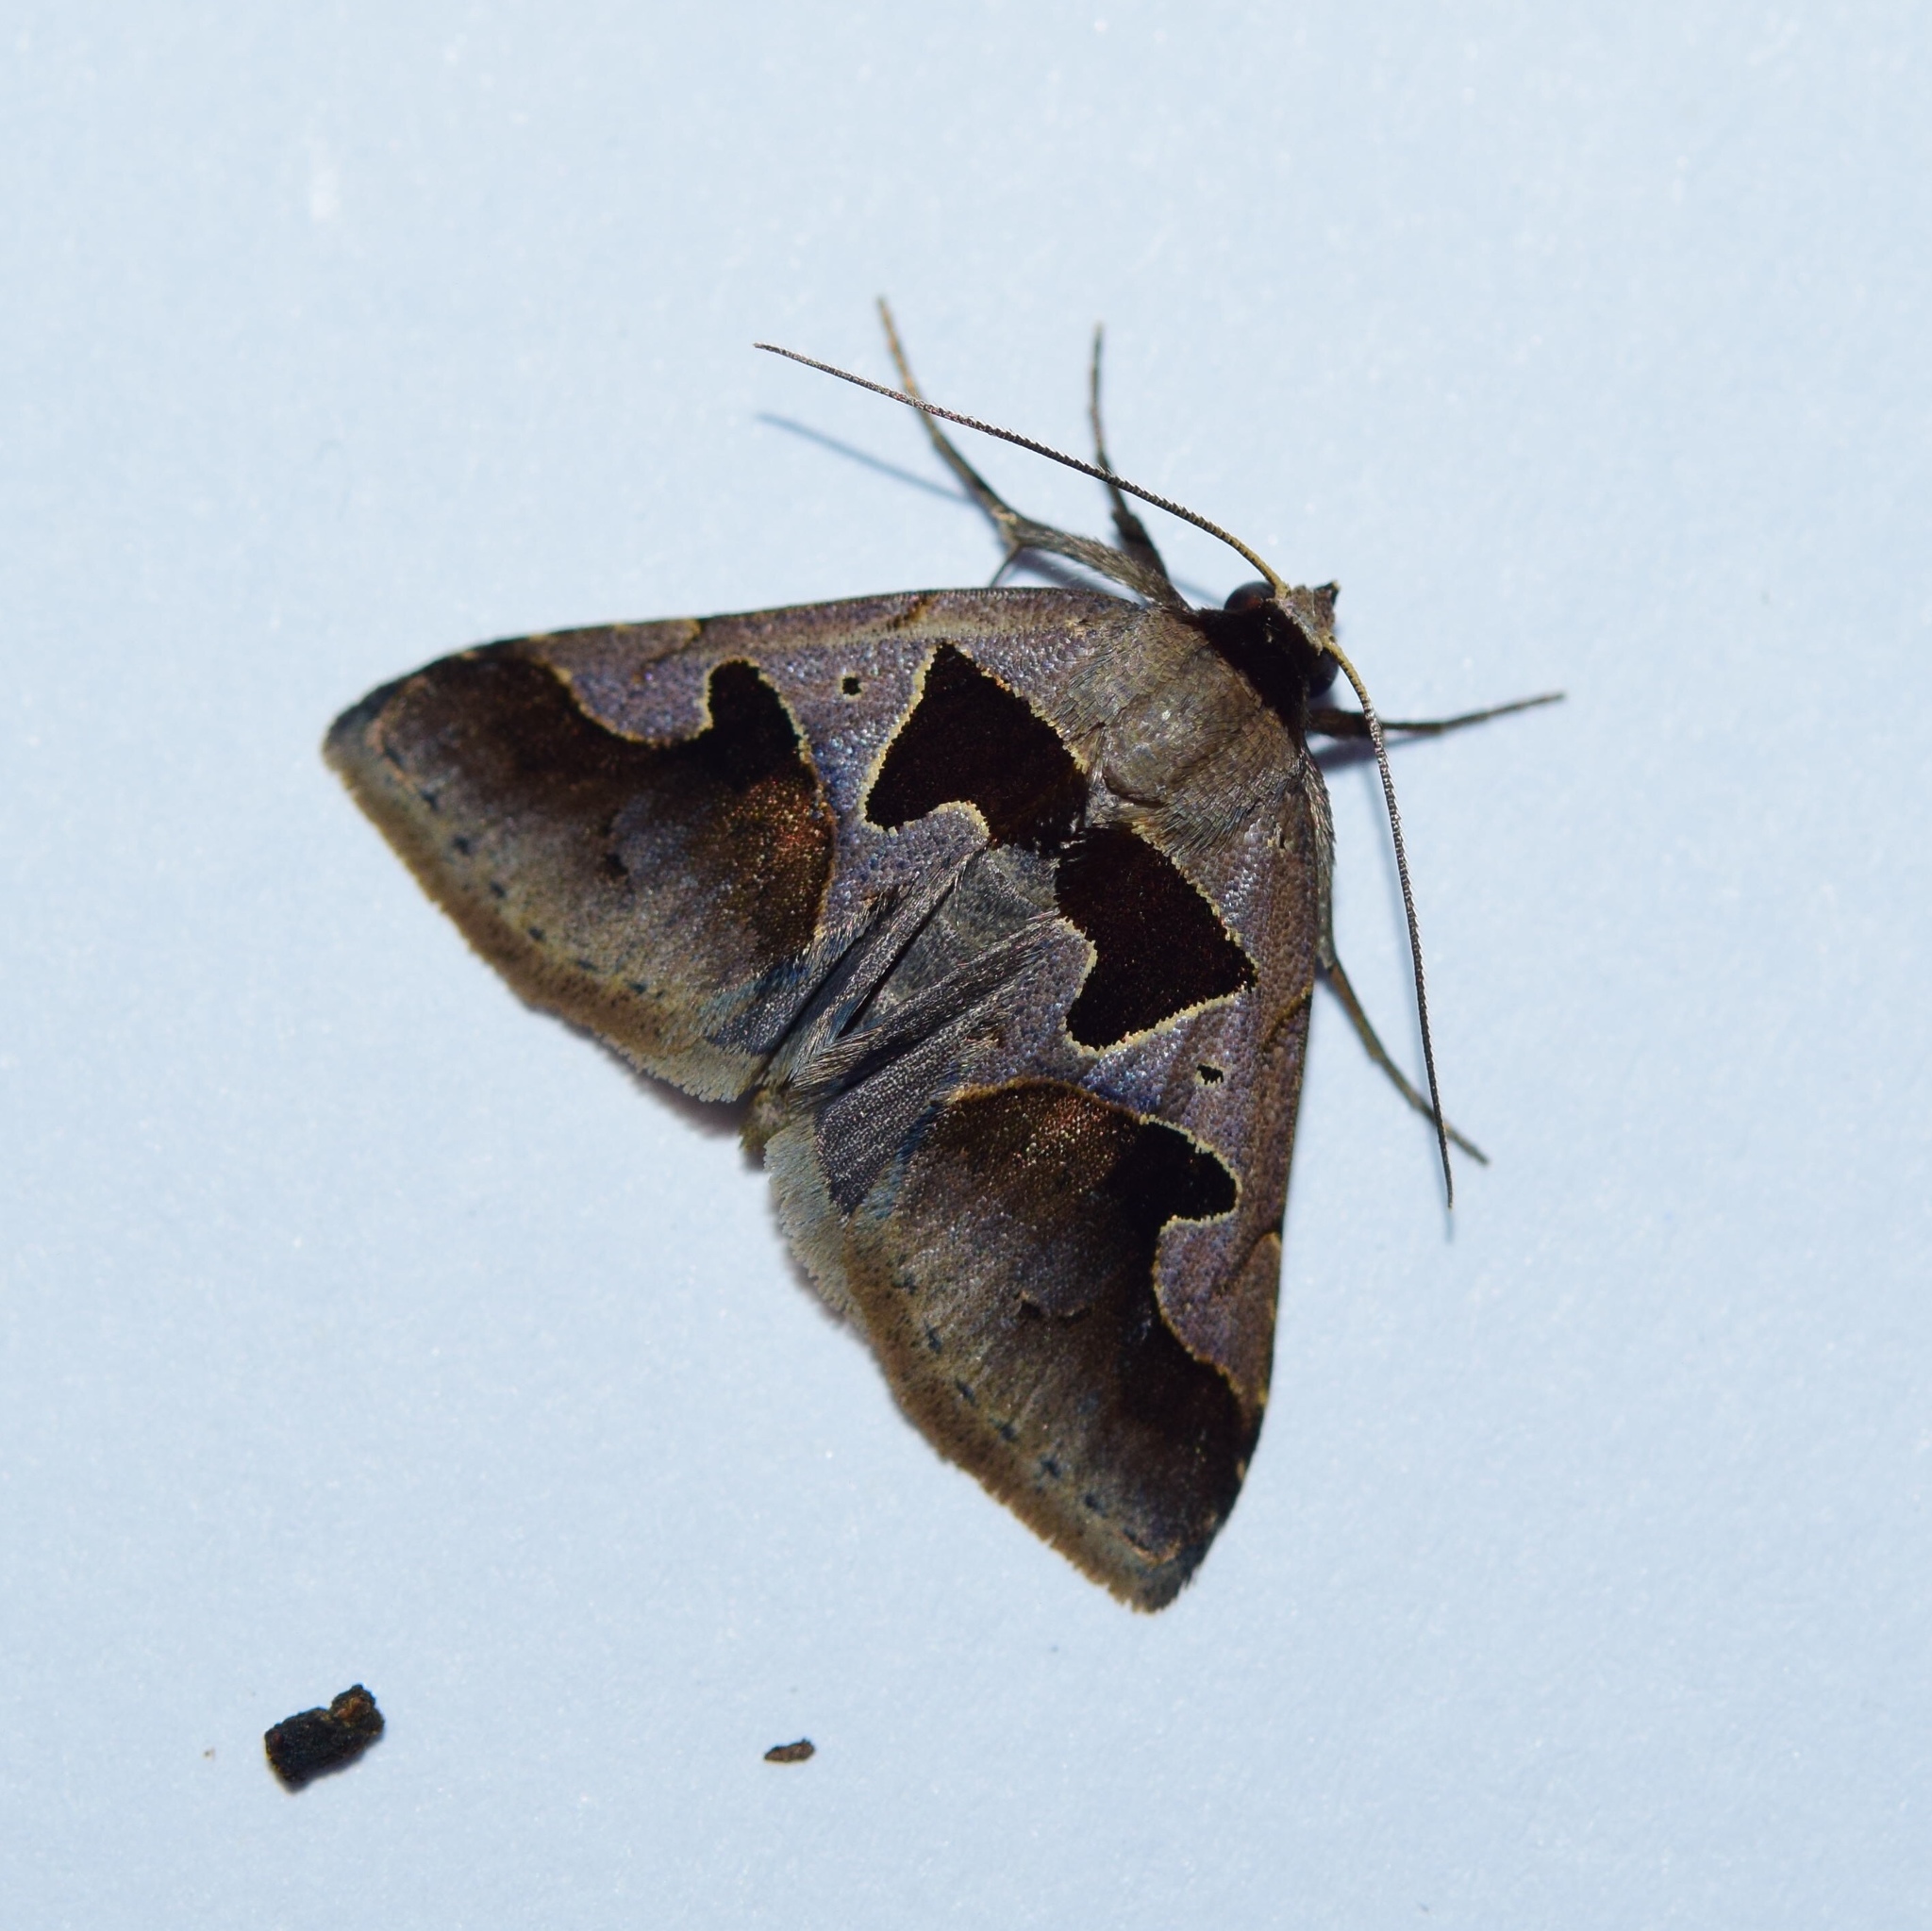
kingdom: Animalia
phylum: Arthropoda
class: Insecta
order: Lepidoptera
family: Erebidae
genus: Anoba
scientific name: Anoba disjuncta
